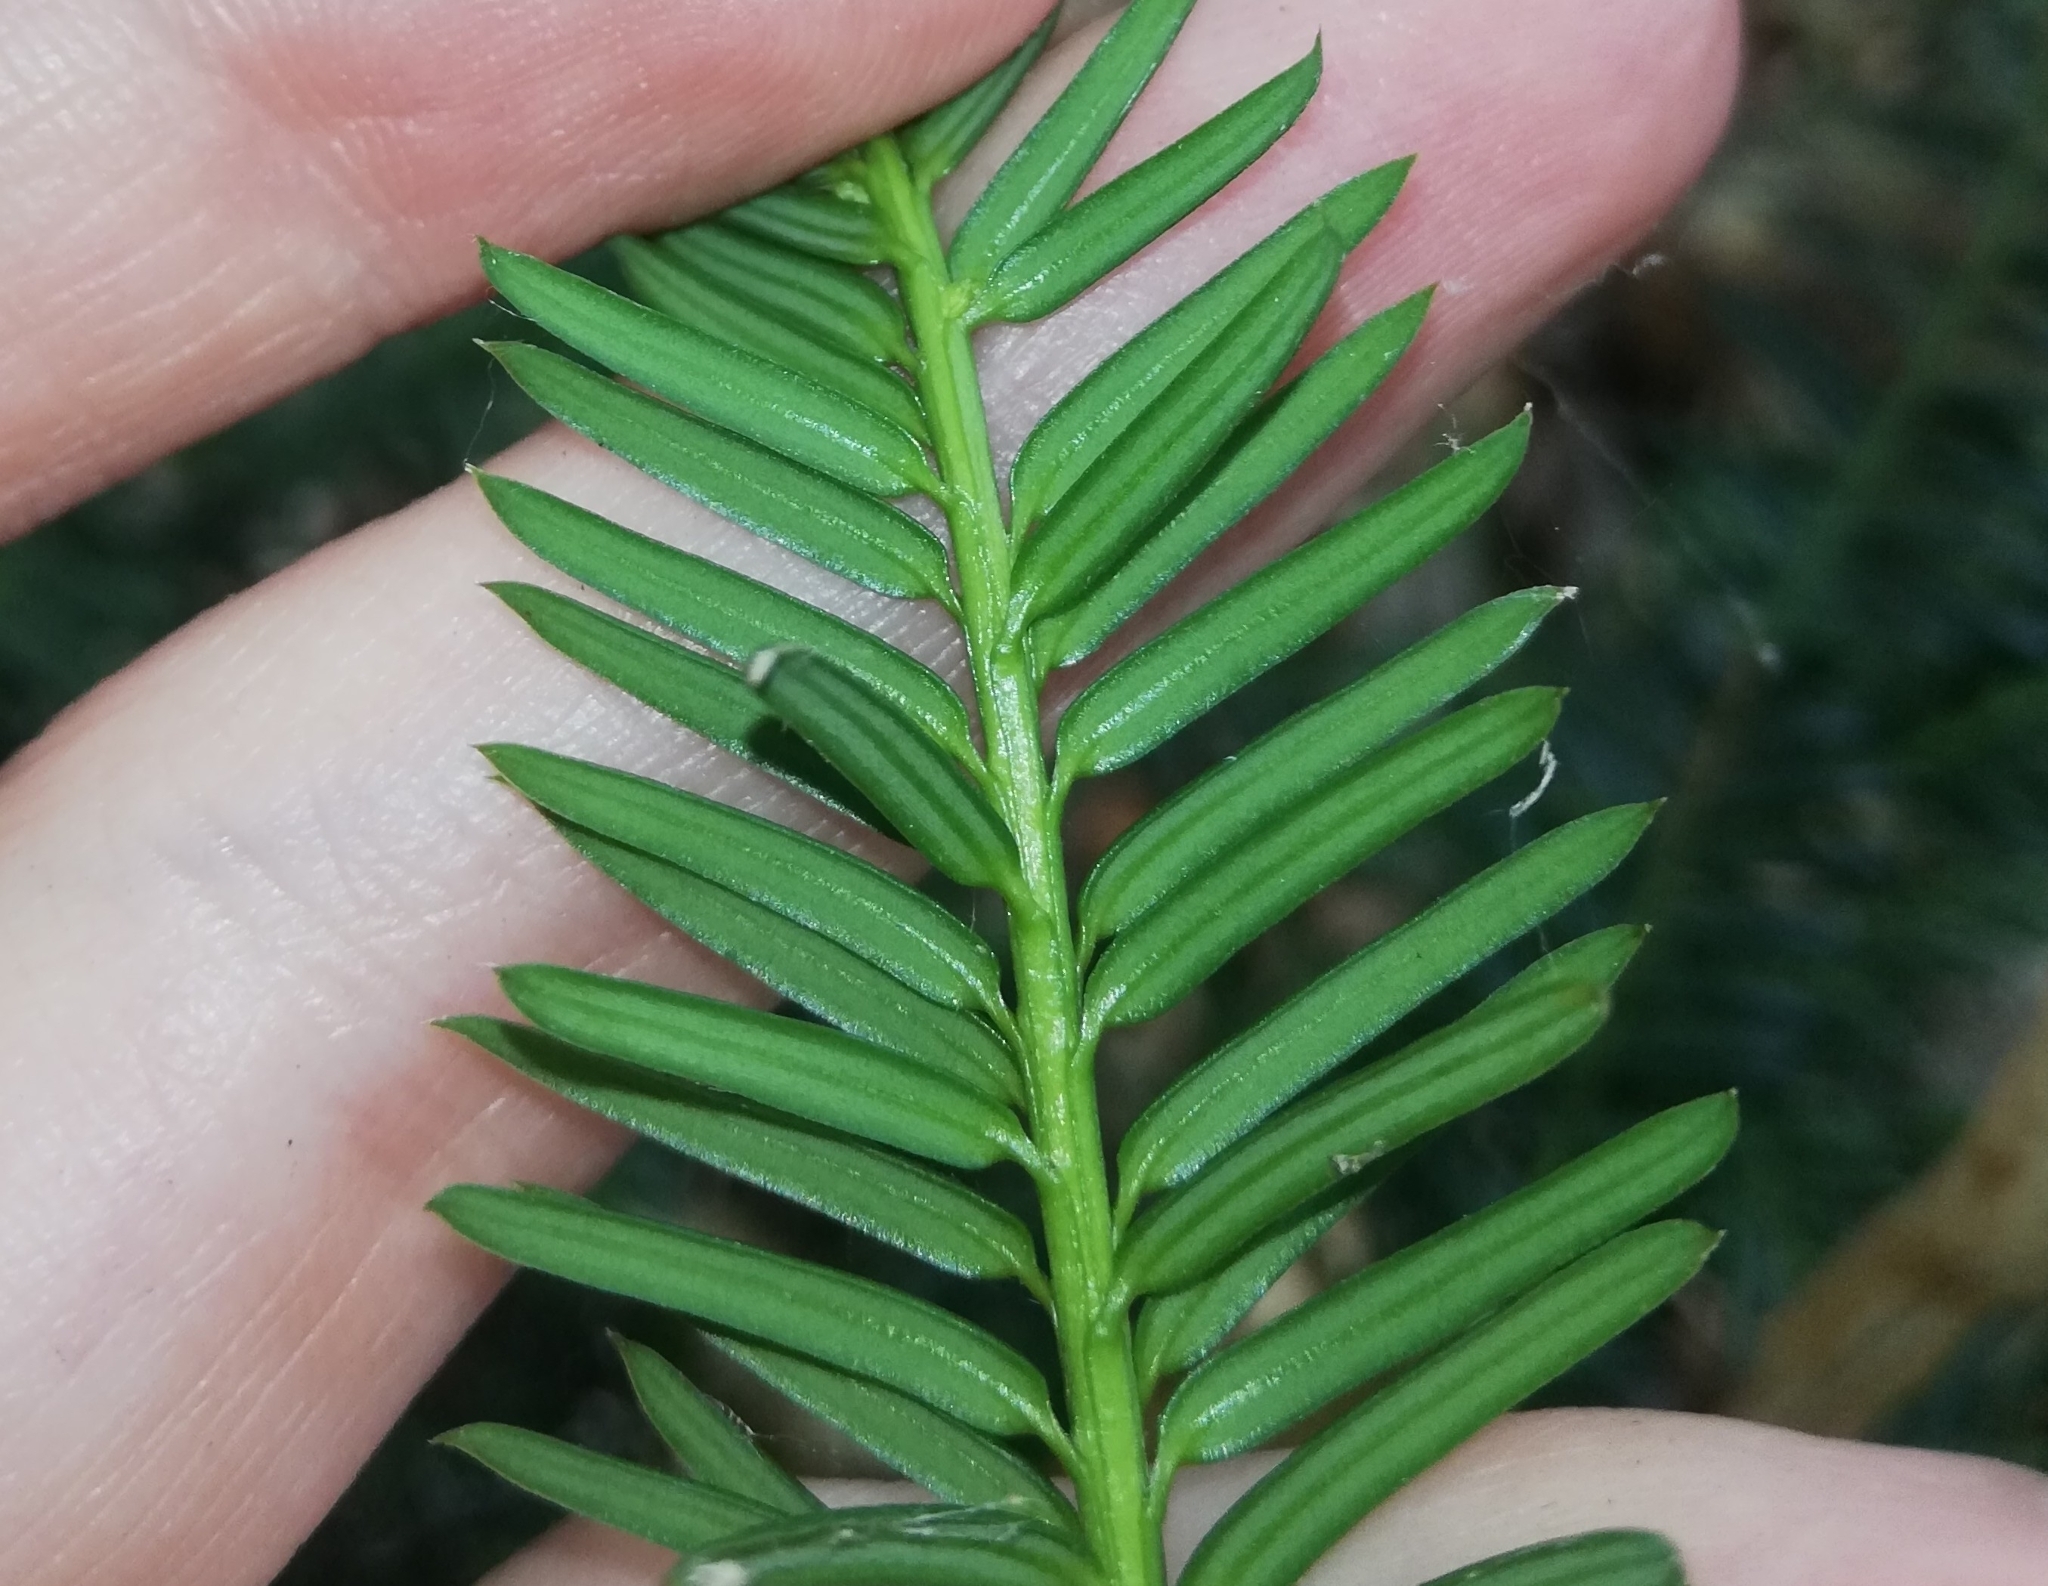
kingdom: Plantae
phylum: Tracheophyta
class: Pinopsida
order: Pinales
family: Taxaceae
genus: Taxus
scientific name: Taxus baccata
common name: Yew
